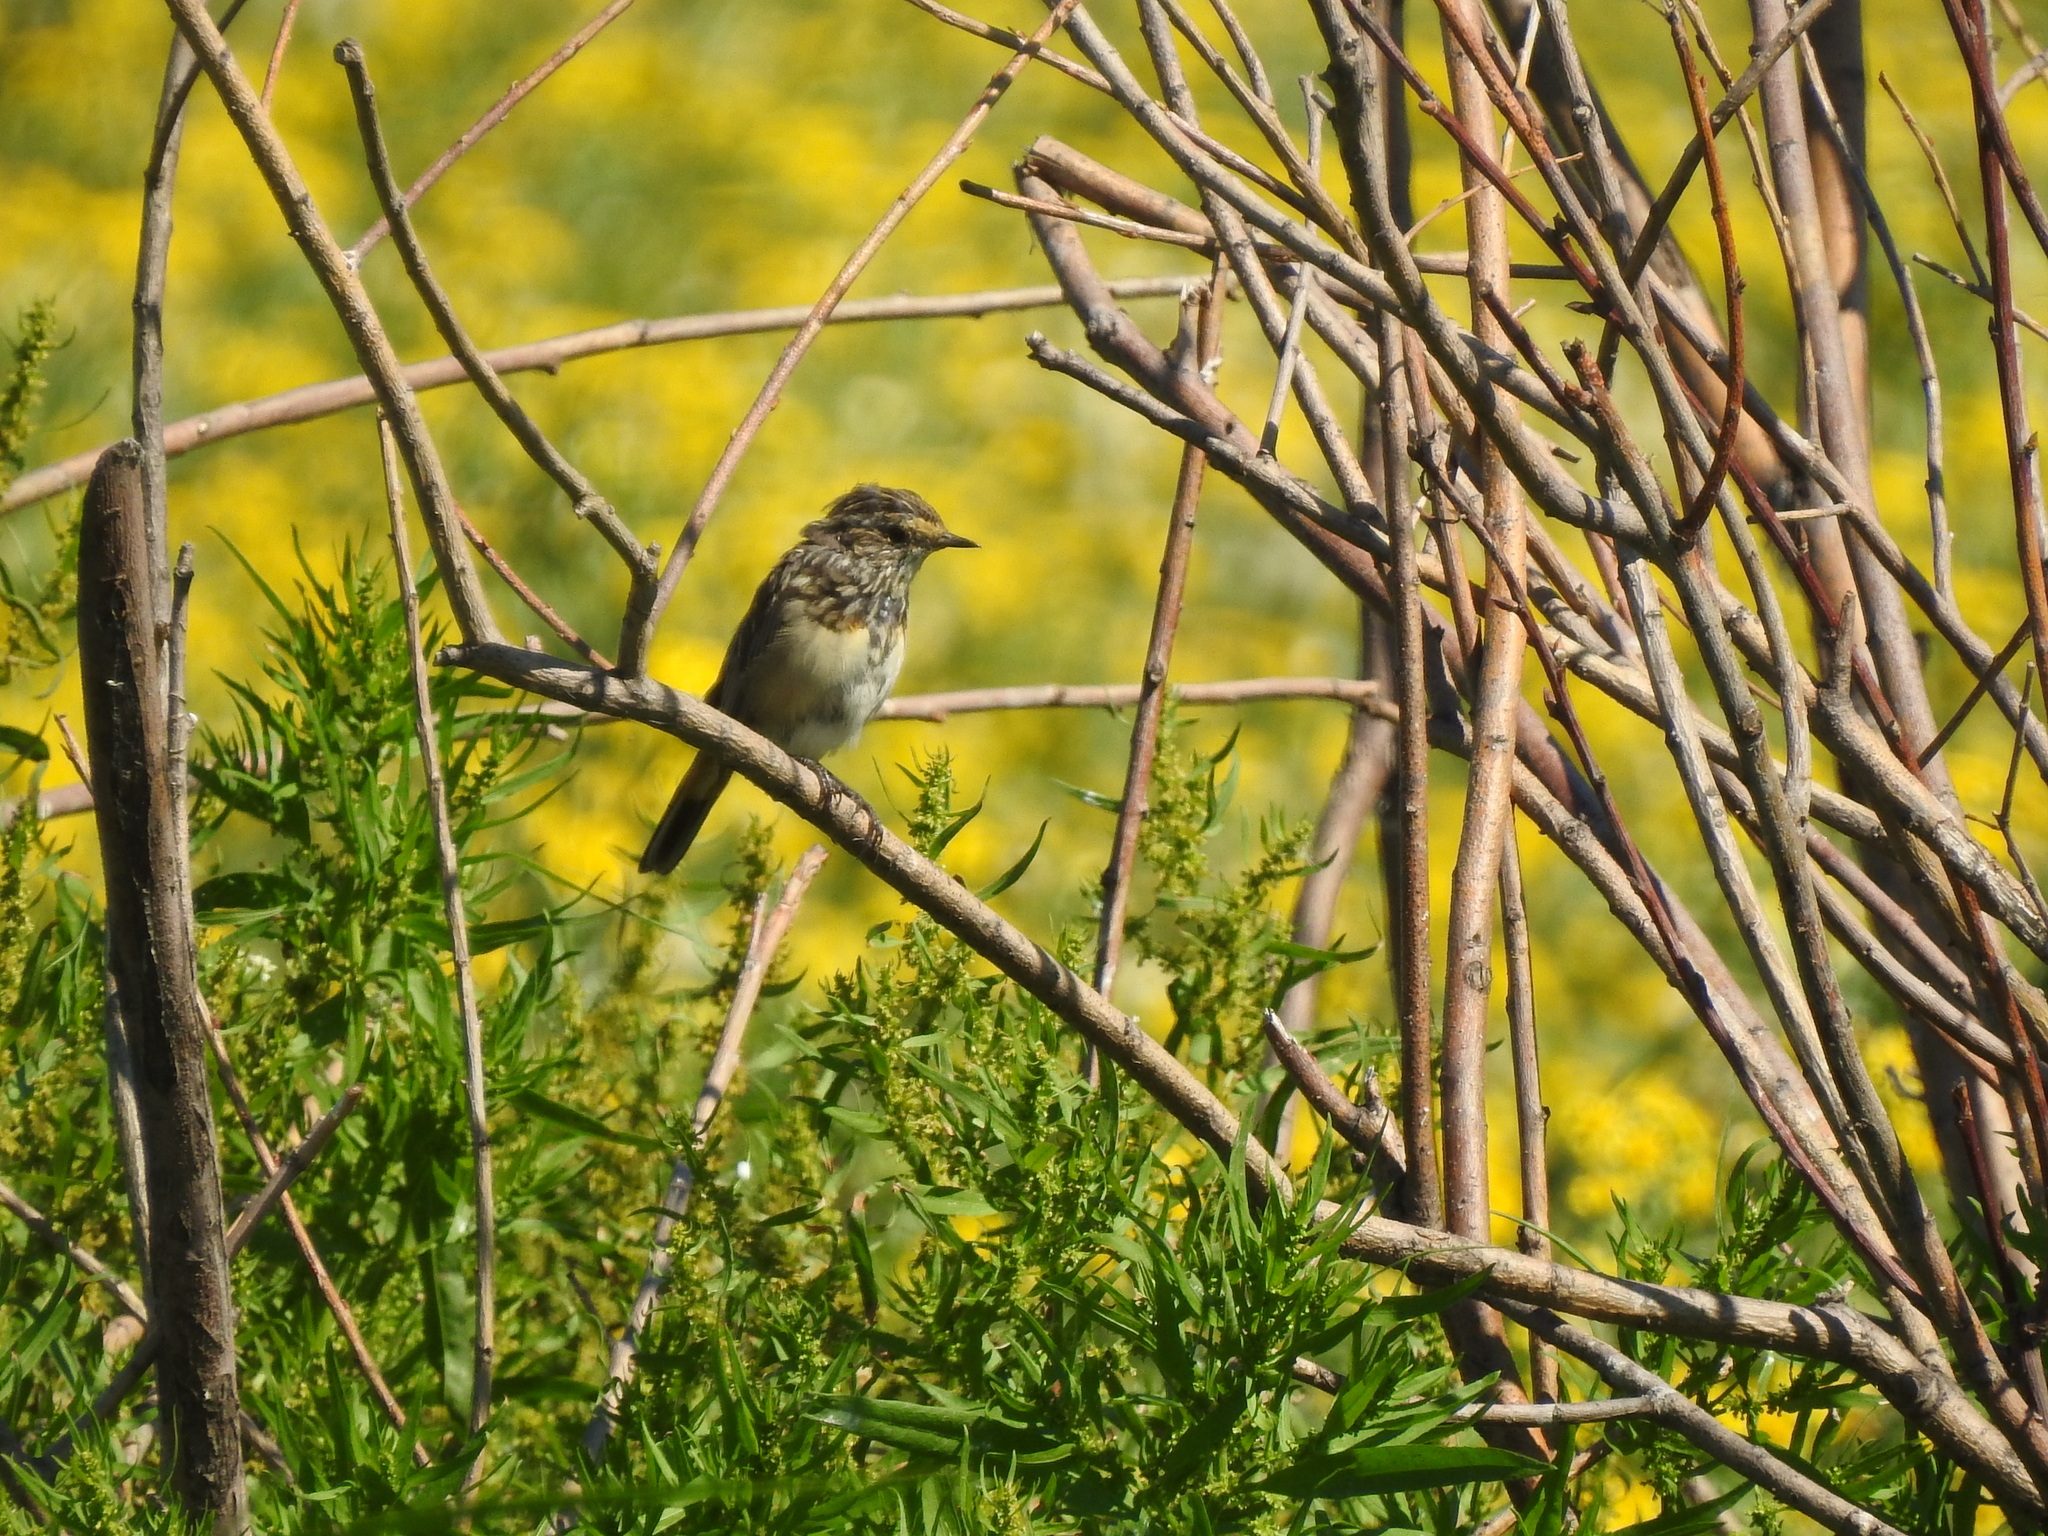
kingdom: Animalia
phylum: Chordata
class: Aves
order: Passeriformes
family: Muscicapidae
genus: Luscinia
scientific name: Luscinia svecica
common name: Bluethroat
